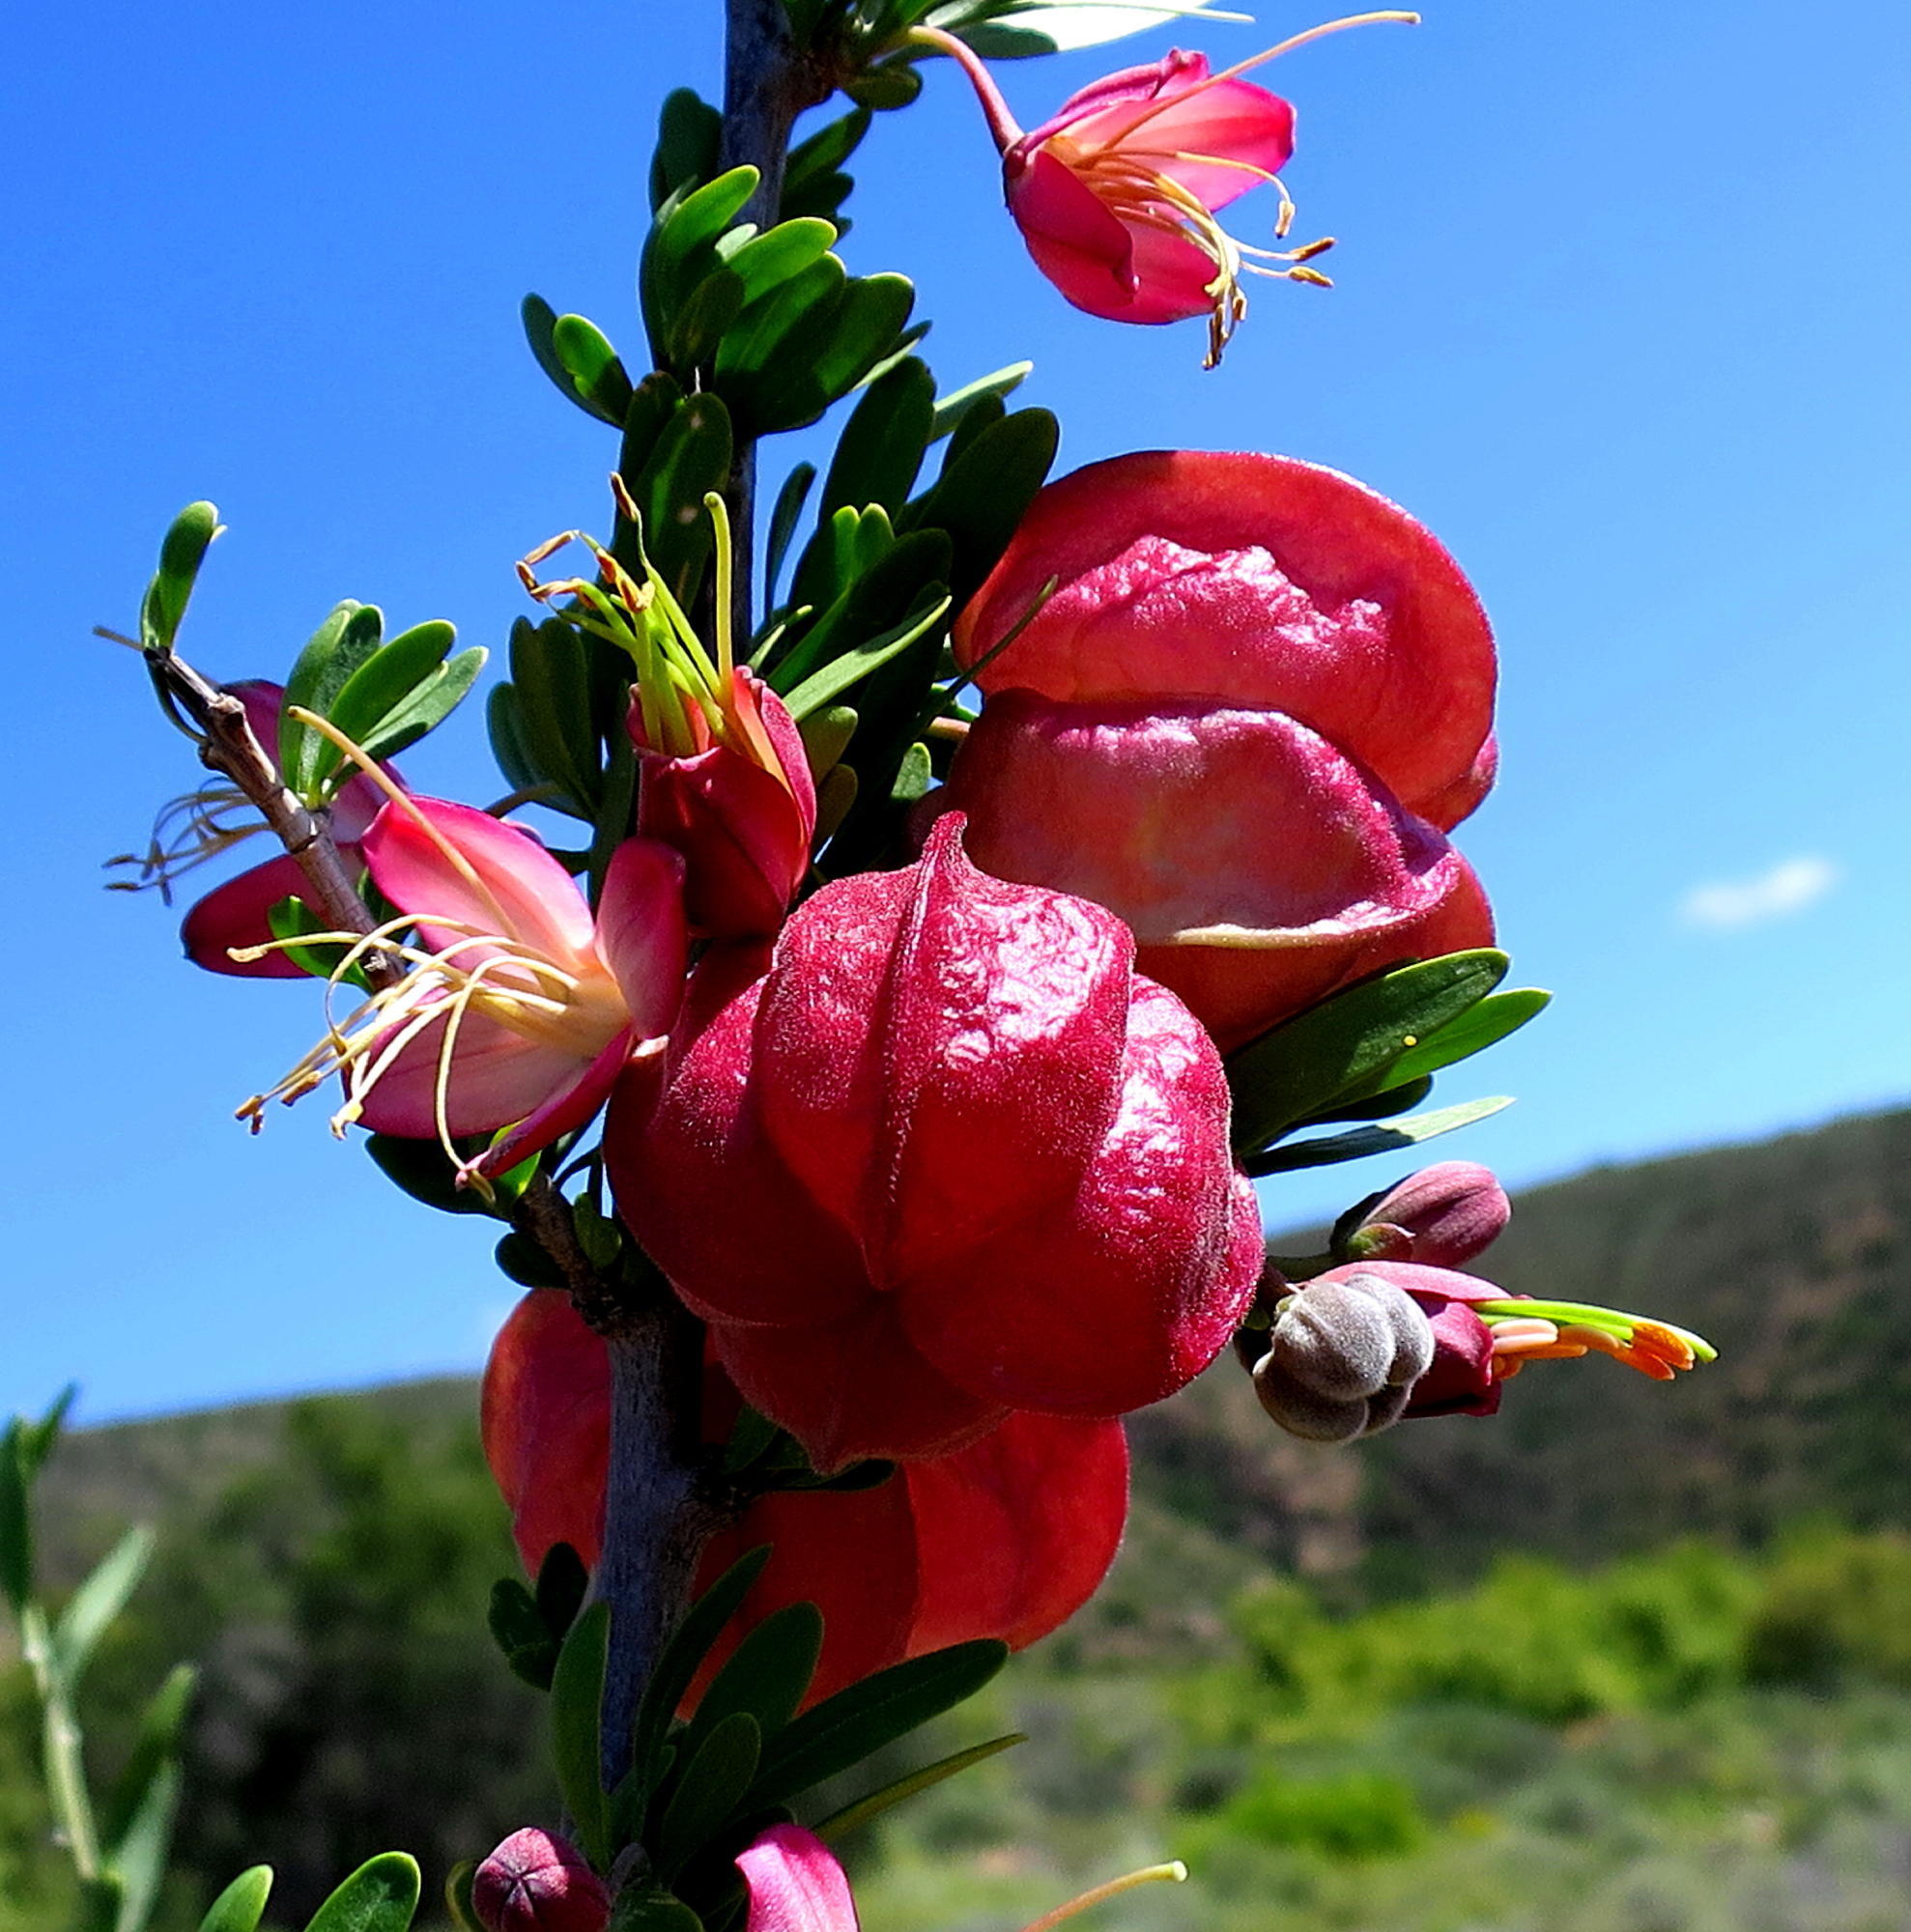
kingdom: Plantae
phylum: Tracheophyta
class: Magnoliopsida
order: Sapindales
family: Meliaceae
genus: Nymania
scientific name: Nymania capensis
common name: Chinese lantern tree
